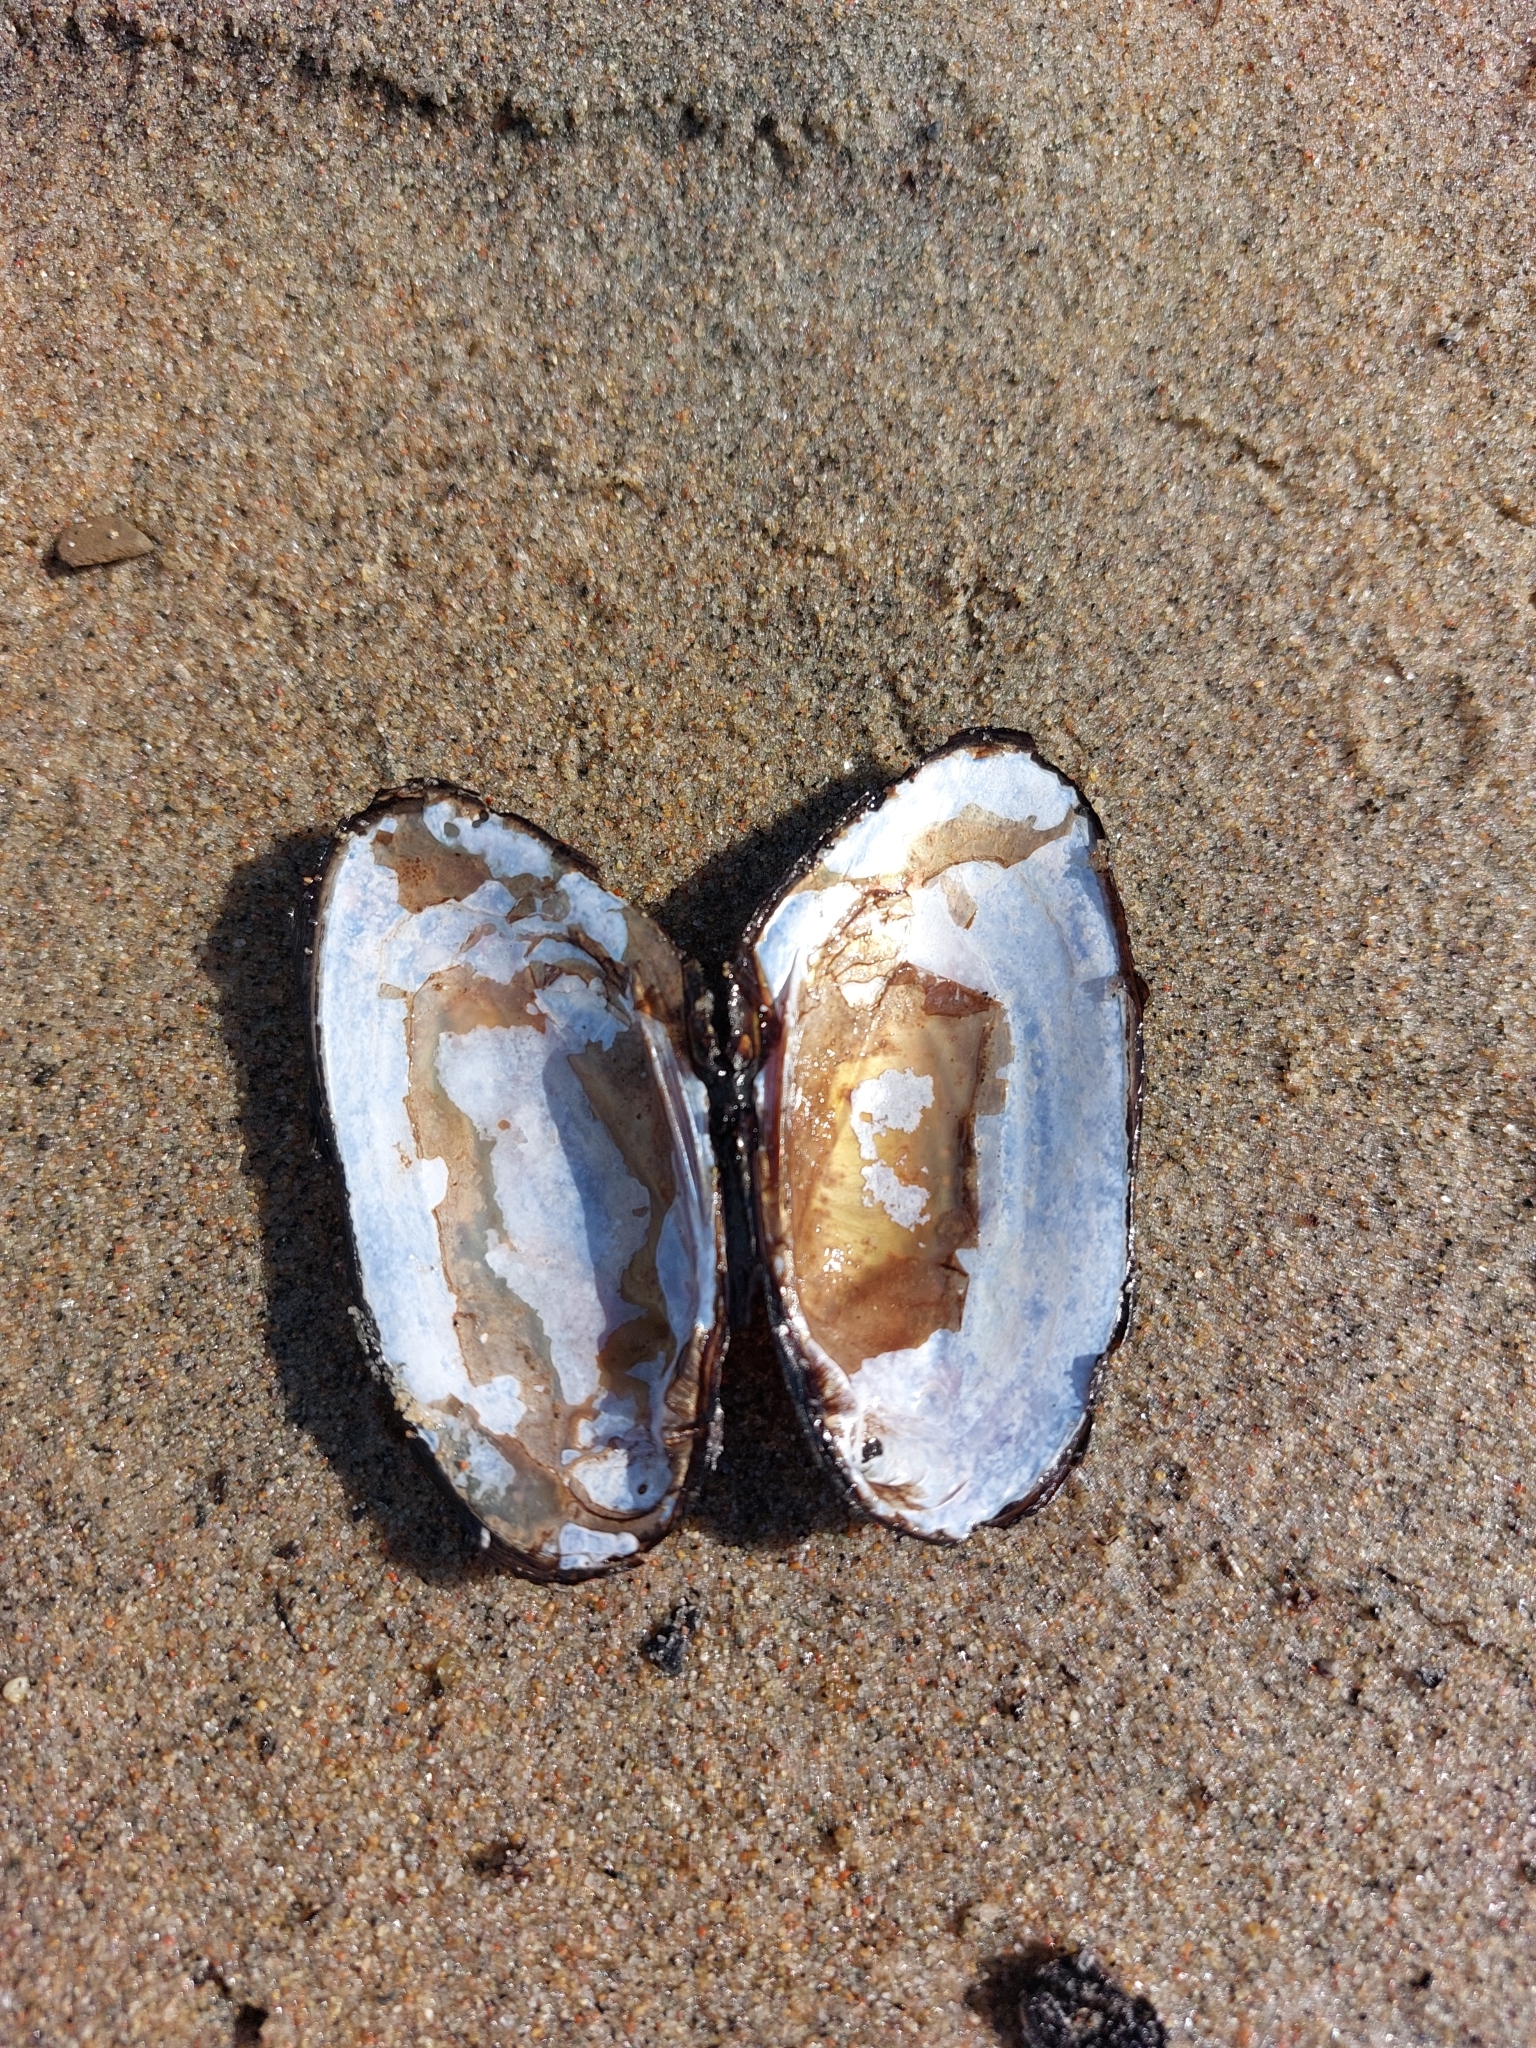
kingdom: Animalia
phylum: Mollusca
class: Bivalvia
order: Unionida
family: Unionidae
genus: Elliptio
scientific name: Elliptio complanata
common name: Eastern elliptio
